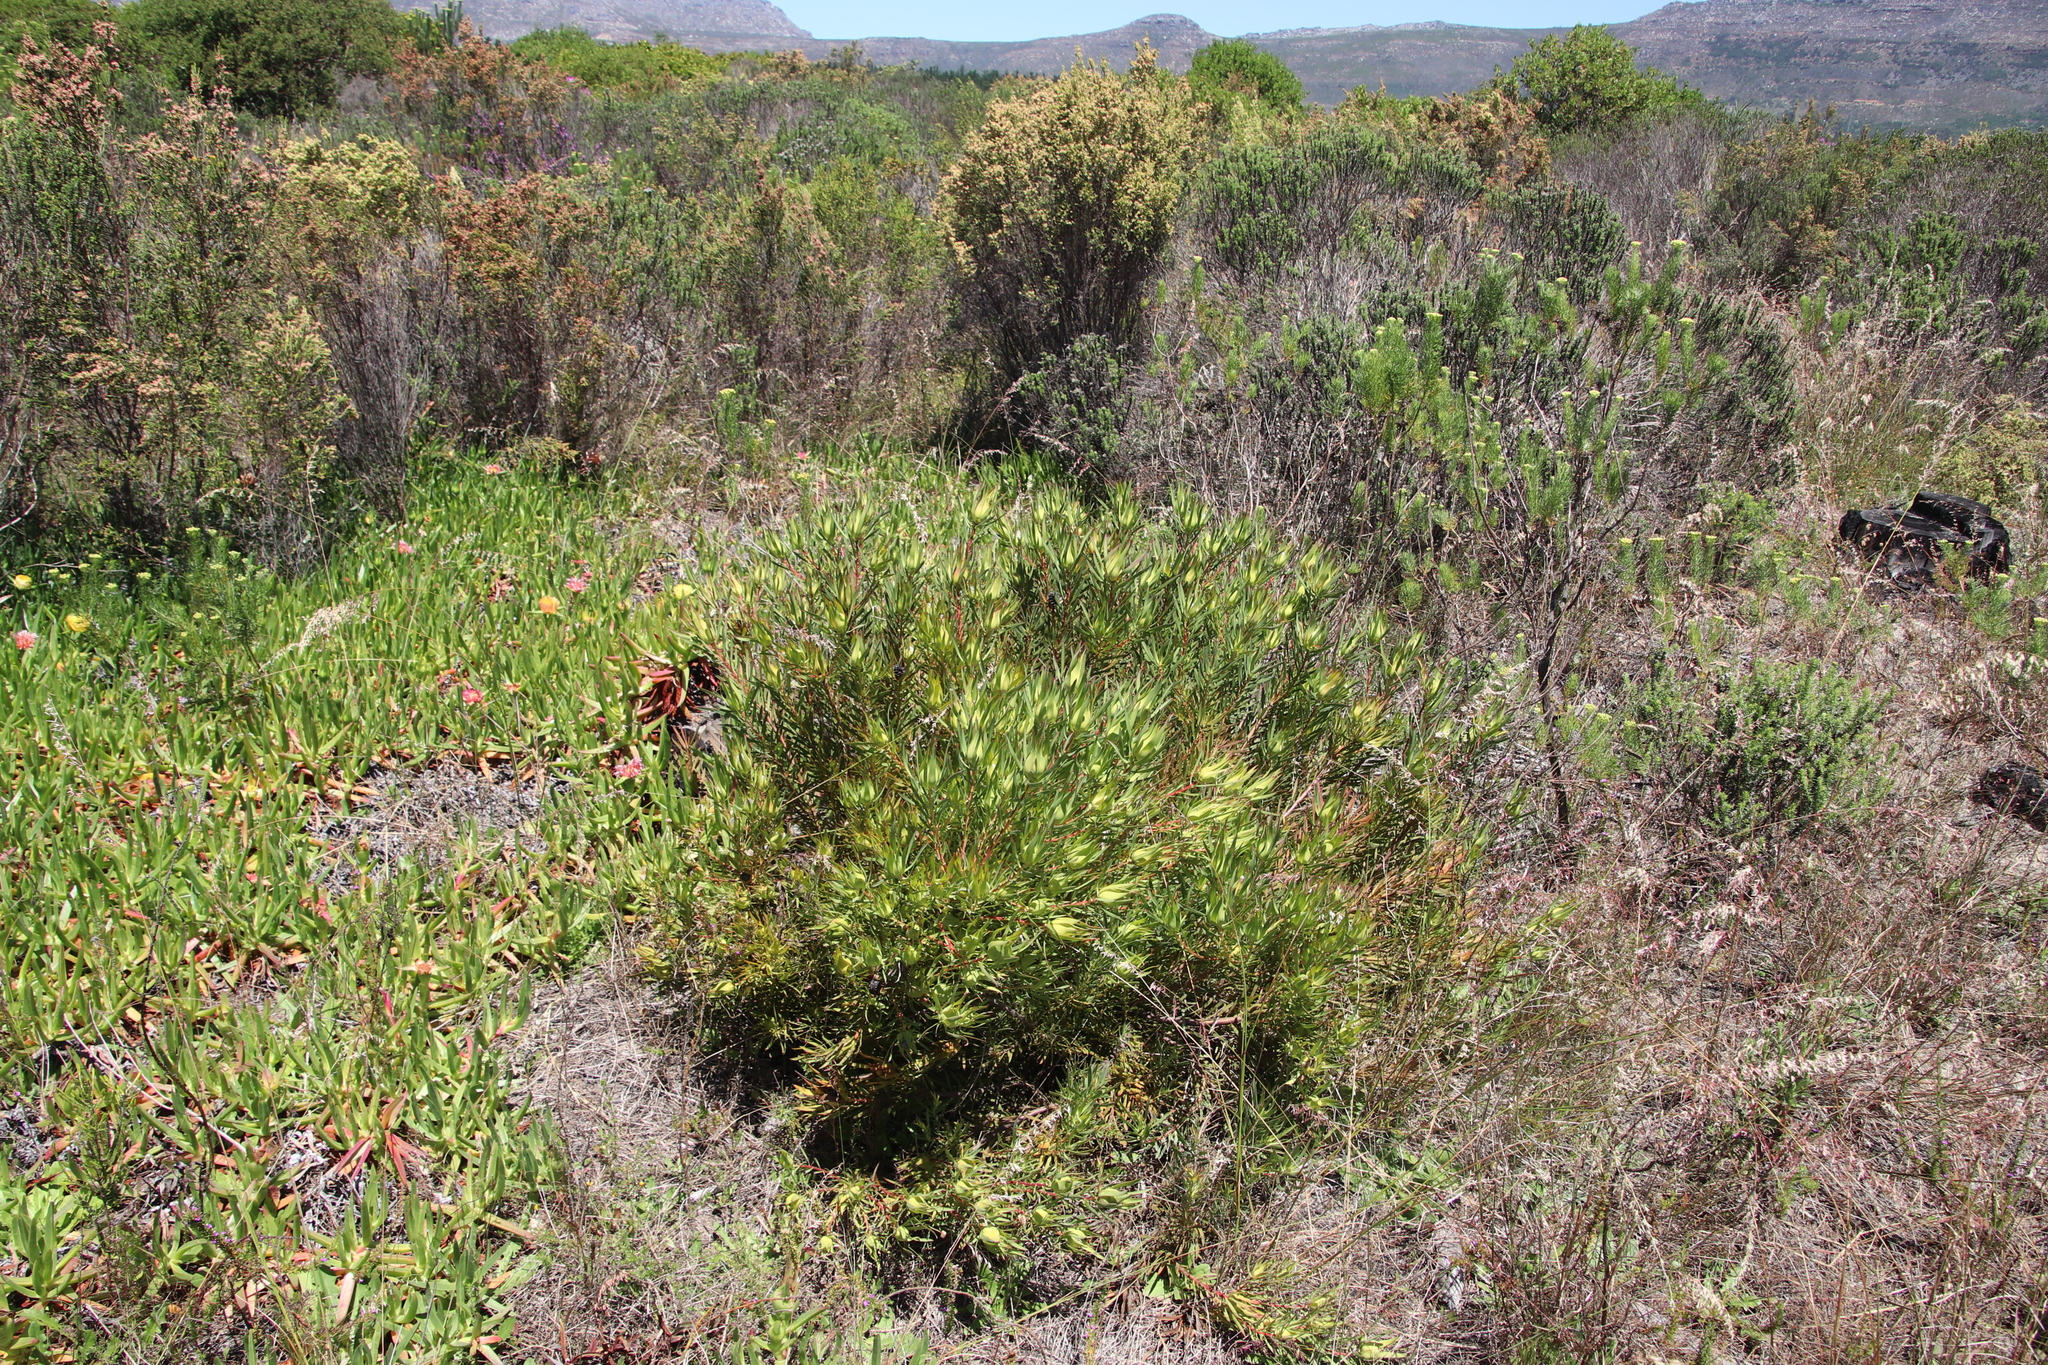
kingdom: Plantae
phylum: Tracheophyta
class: Magnoliopsida
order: Proteales
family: Proteaceae
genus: Leucadendron
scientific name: Leucadendron salignum
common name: Common sunshine conebush
